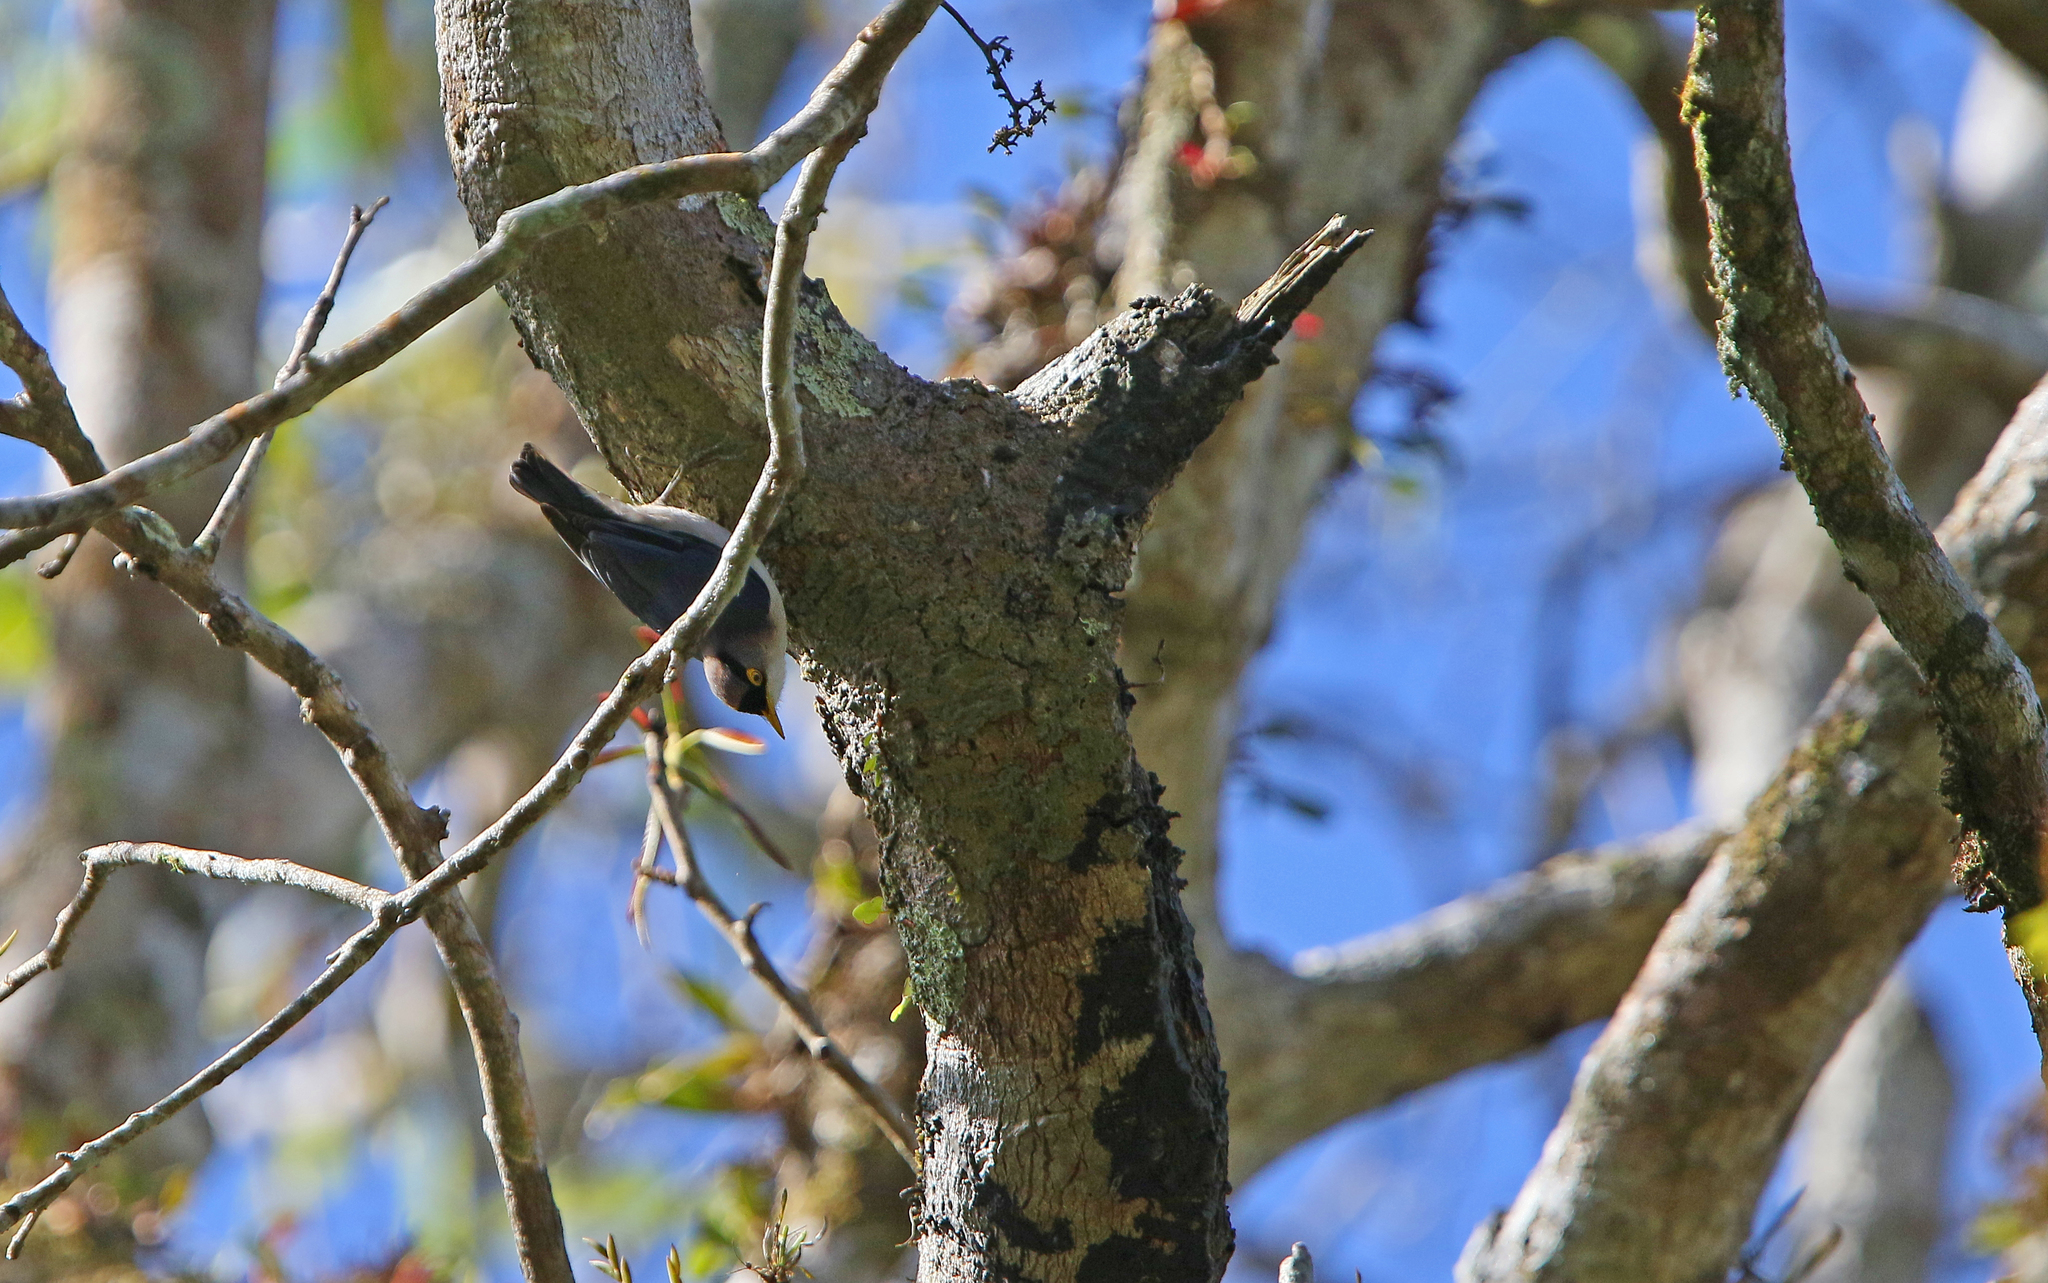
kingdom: Animalia
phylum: Chordata
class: Aves
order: Passeriformes
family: Sittidae
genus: Sitta
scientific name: Sitta solangiae
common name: Yellow-billed nuthatch
